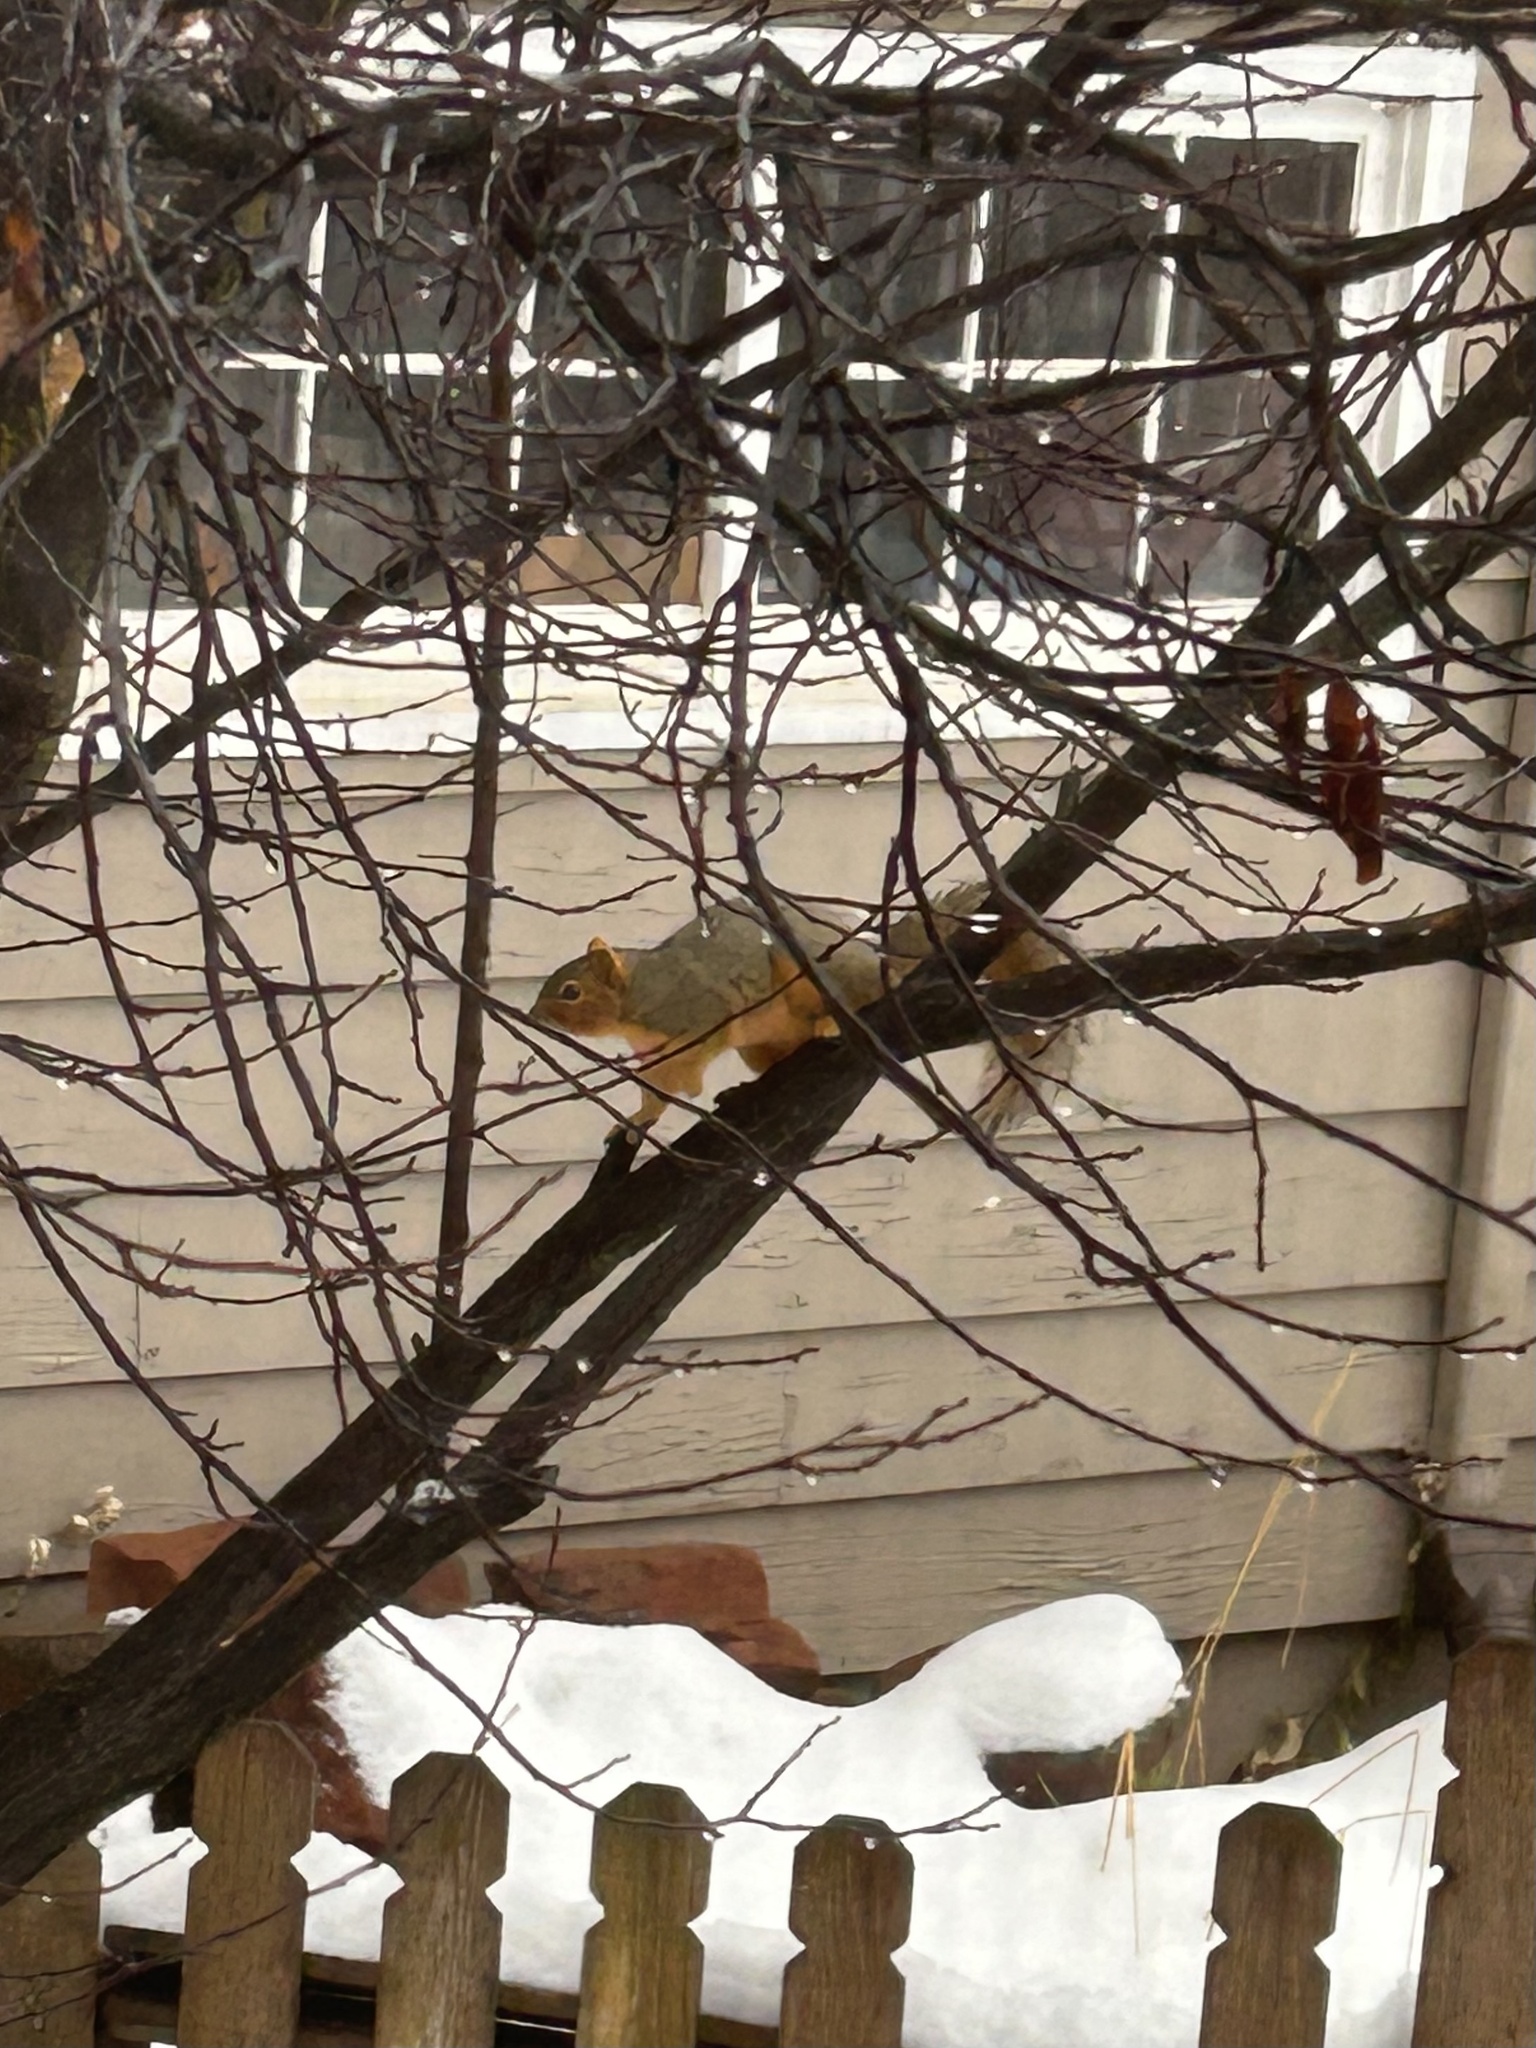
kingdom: Animalia
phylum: Chordata
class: Mammalia
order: Rodentia
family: Sciuridae
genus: Sciurus
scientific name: Sciurus niger
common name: Fox squirrel
